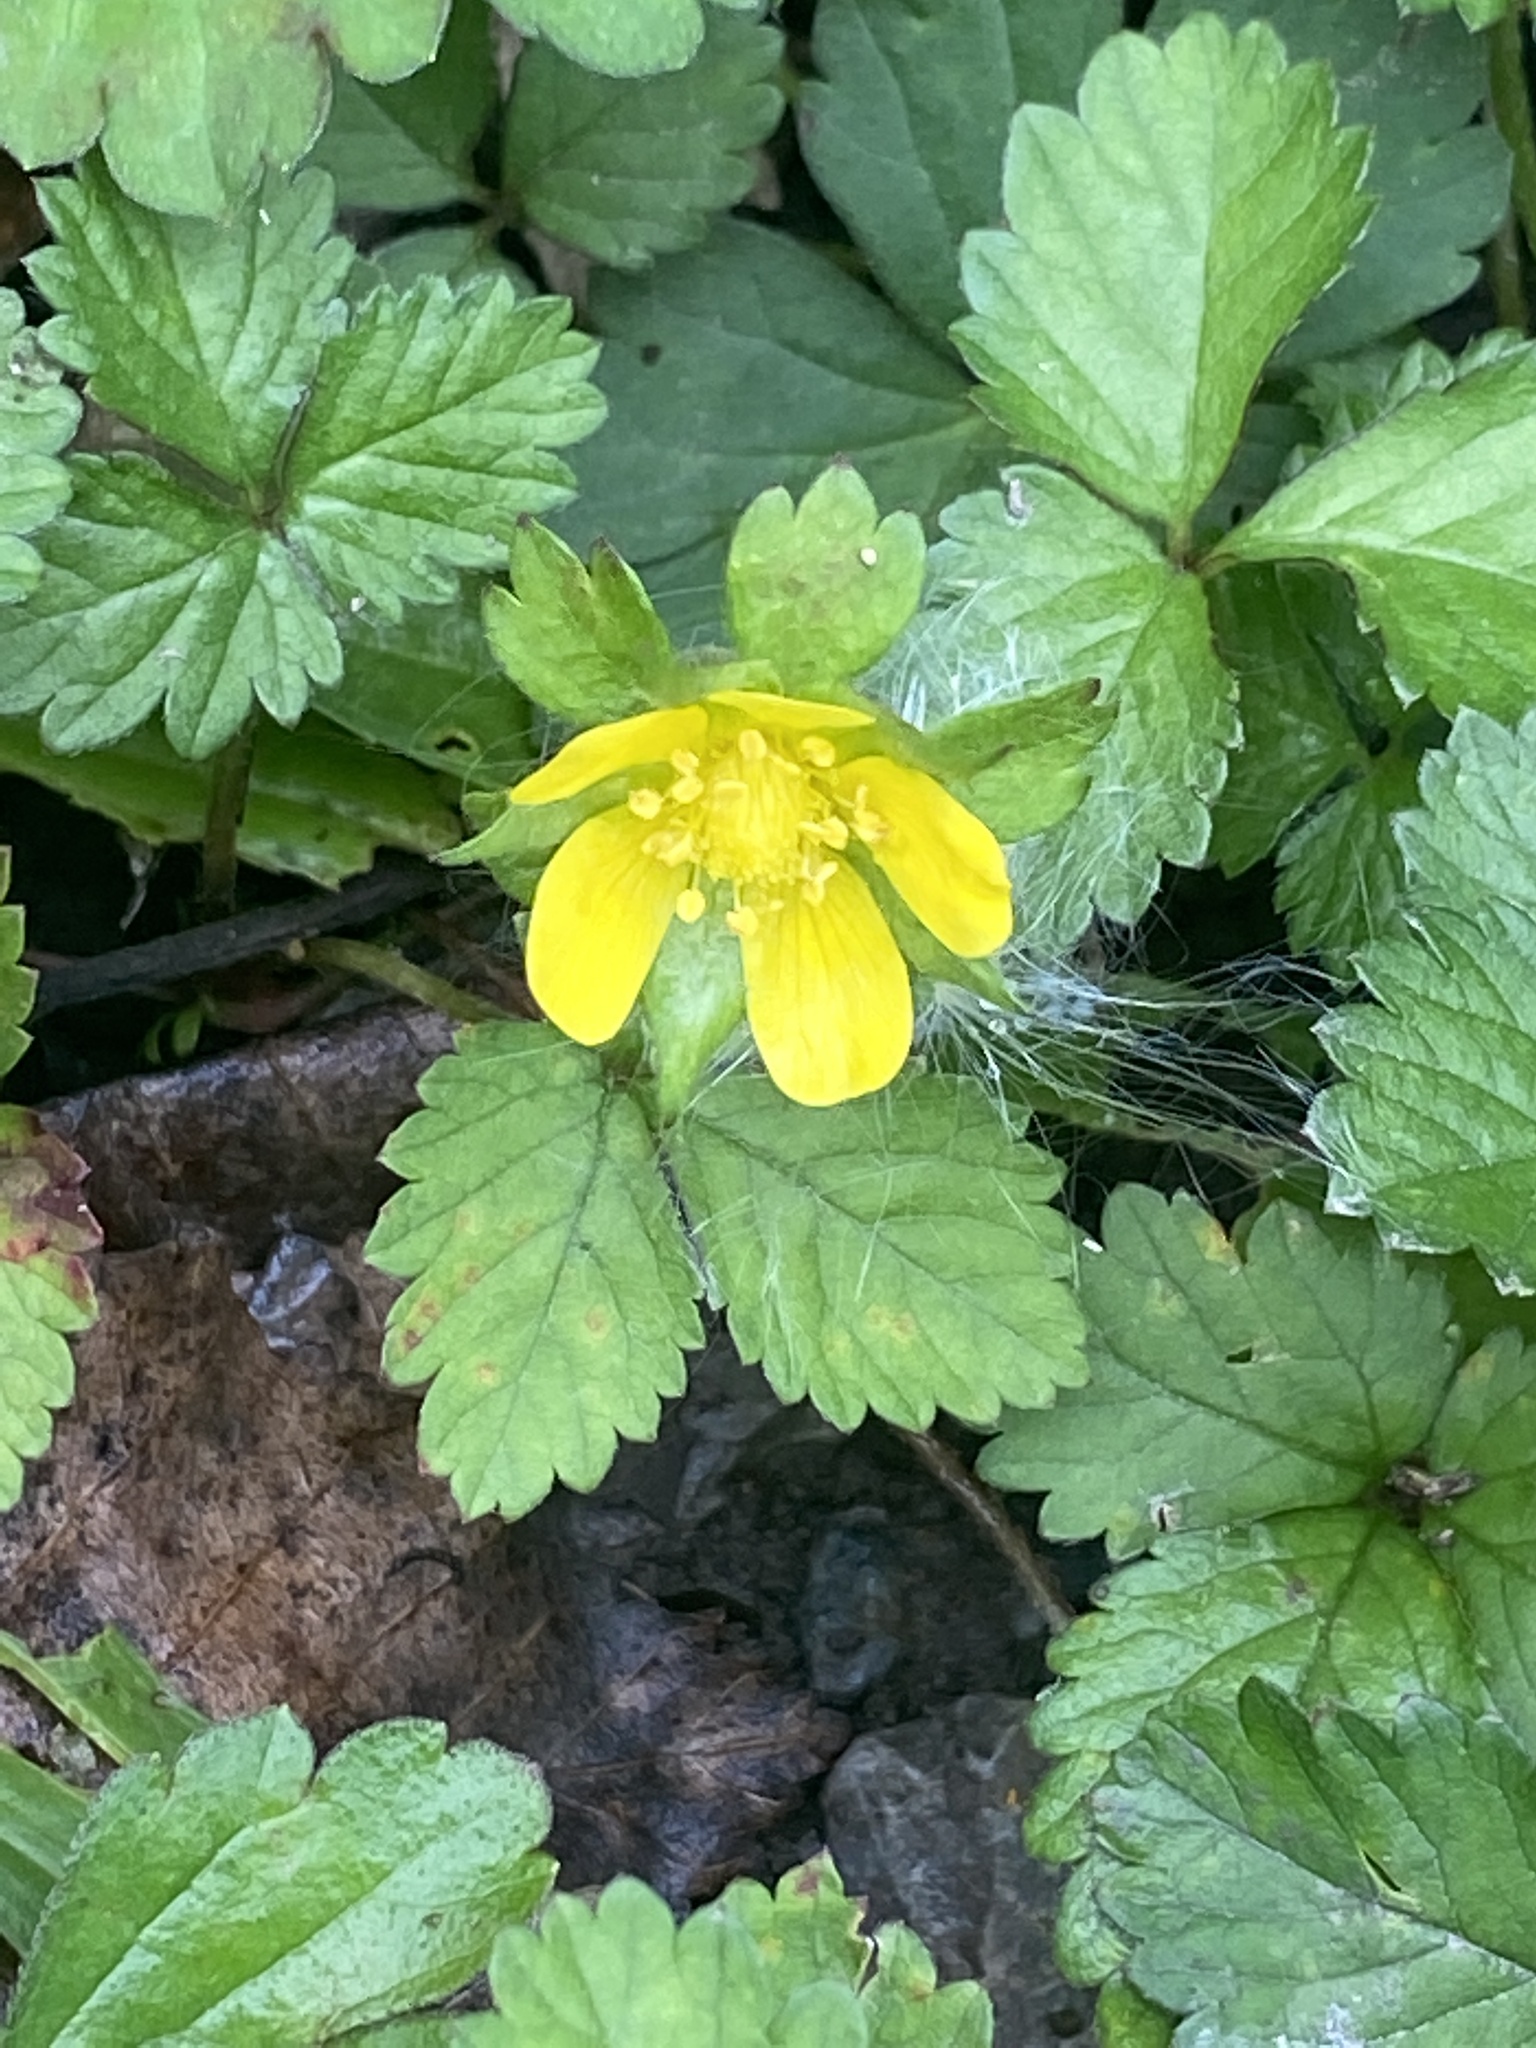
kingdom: Plantae
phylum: Tracheophyta
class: Magnoliopsida
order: Rosales
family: Rosaceae
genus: Potentilla
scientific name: Potentilla indica
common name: Yellow-flowered strawberry
